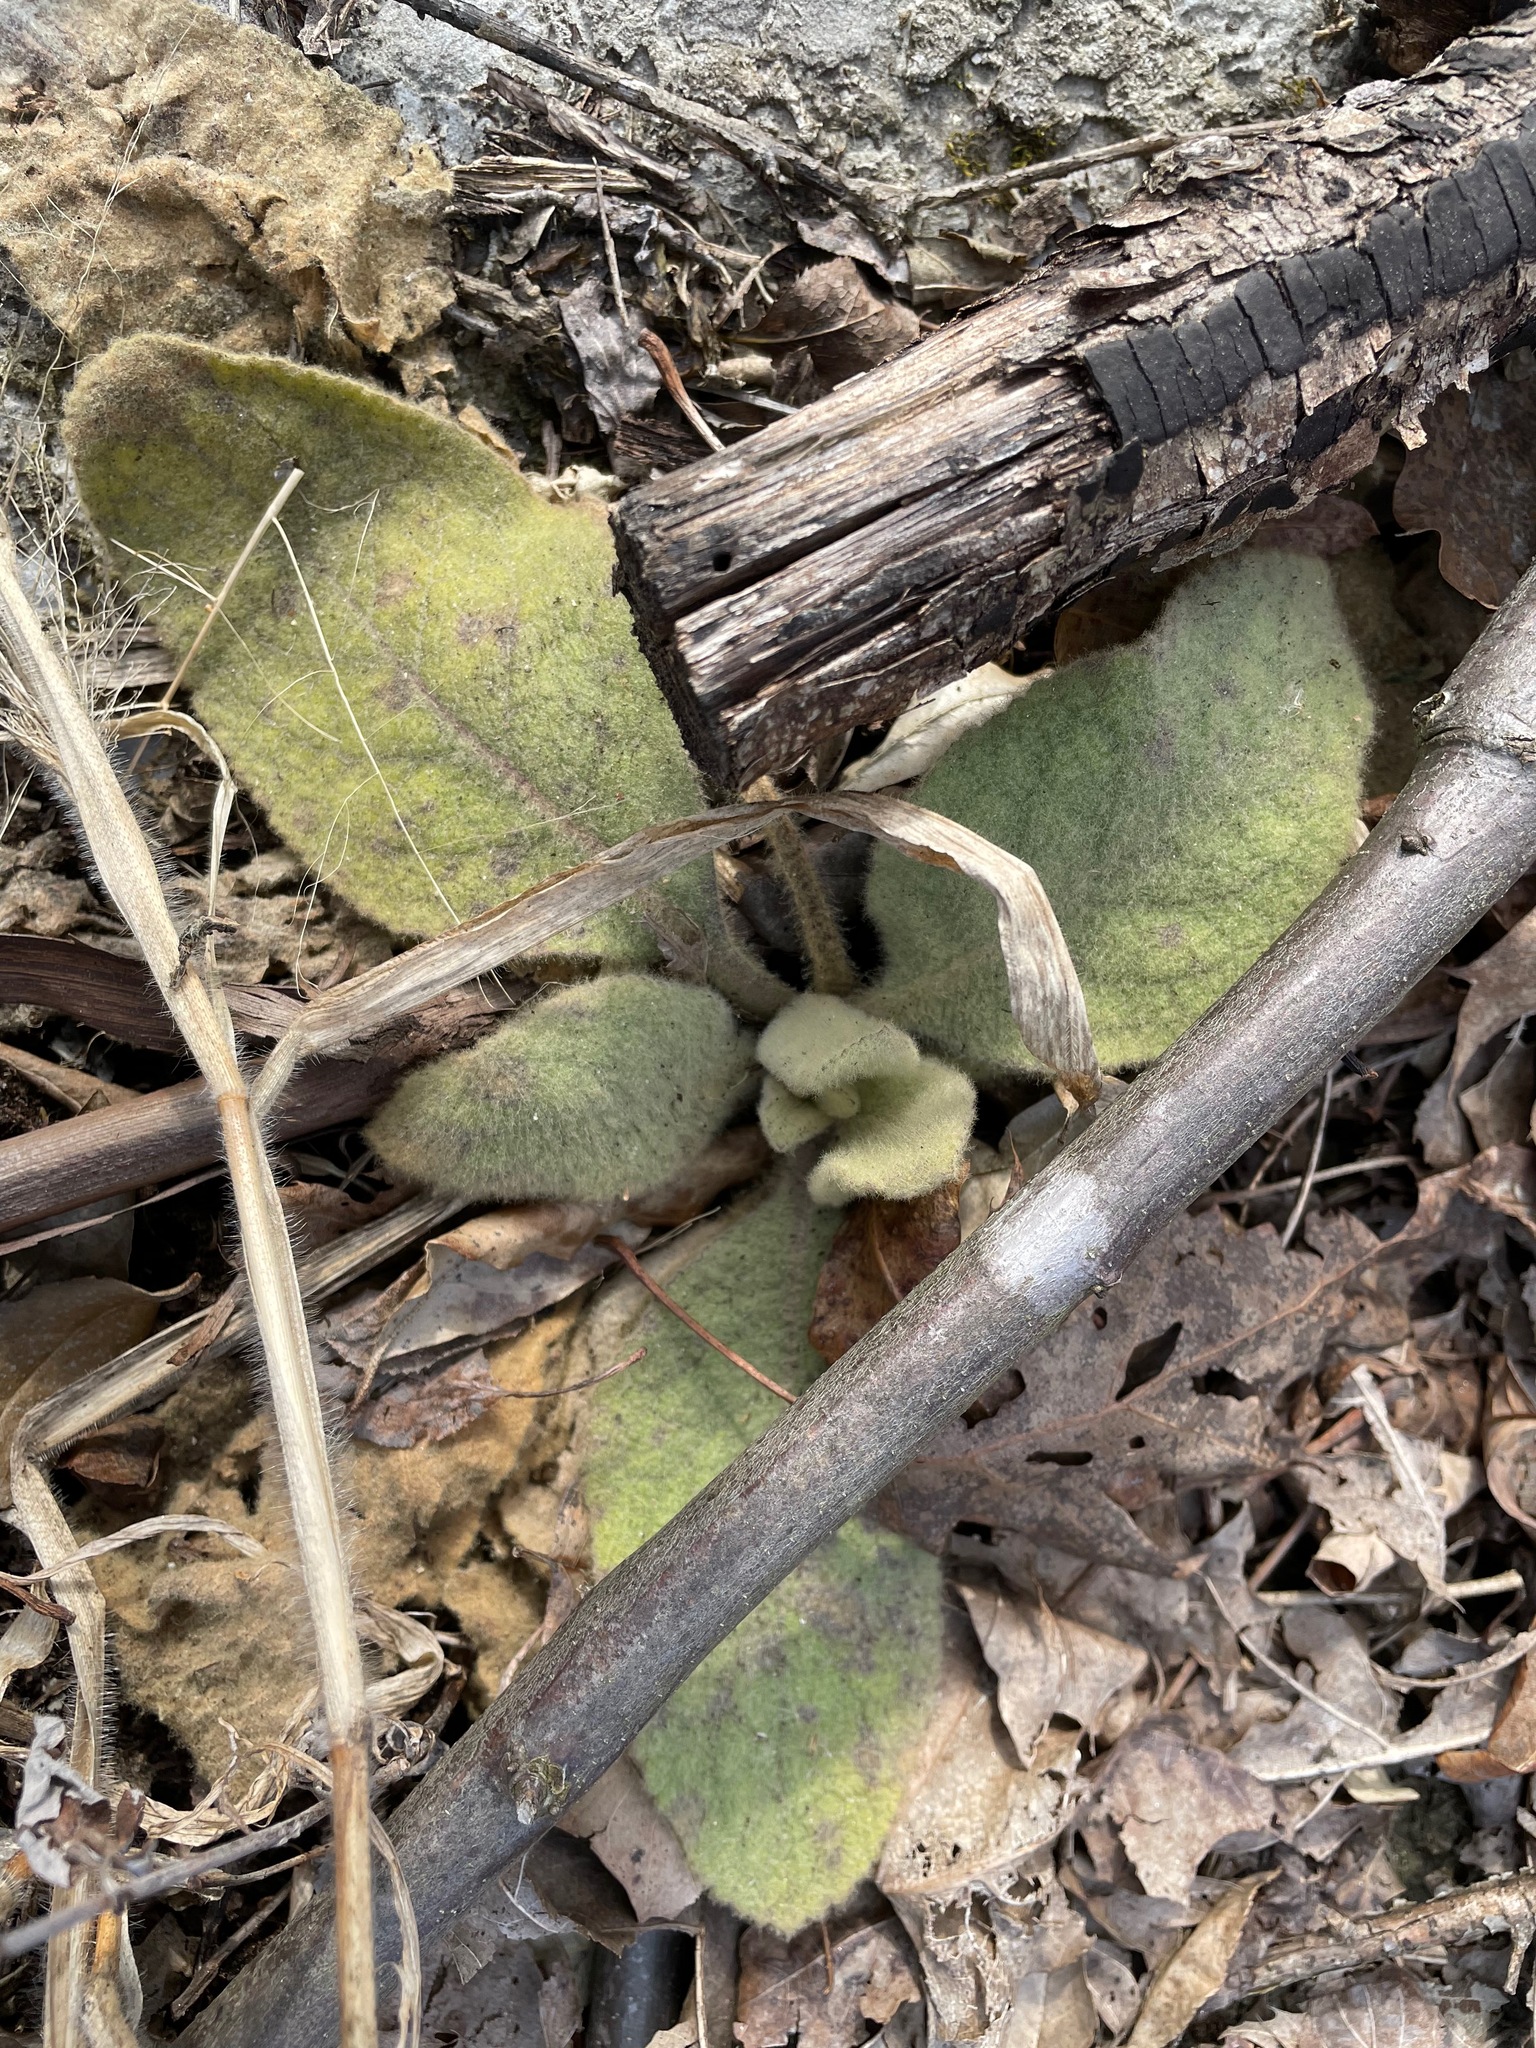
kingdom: Plantae
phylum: Tracheophyta
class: Magnoliopsida
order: Lamiales
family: Scrophulariaceae
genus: Verbascum
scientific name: Verbascum thapsus
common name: Common mullein
